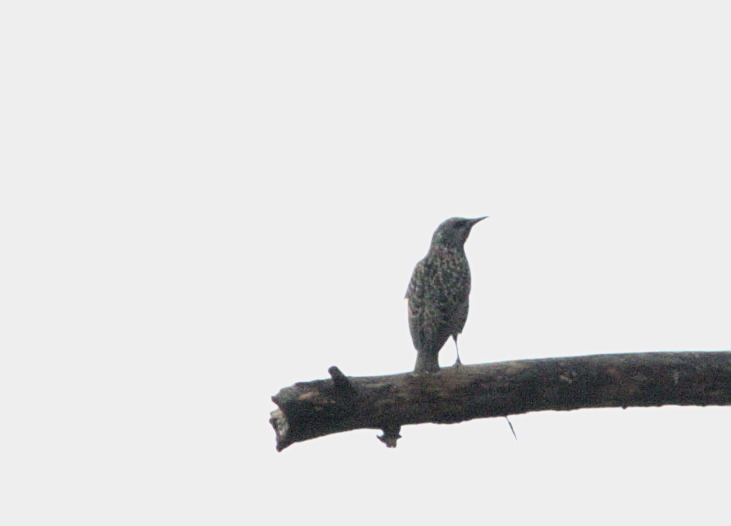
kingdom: Animalia
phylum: Chordata
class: Aves
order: Passeriformes
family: Sturnidae
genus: Sturnus
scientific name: Sturnus vulgaris
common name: Common starling
